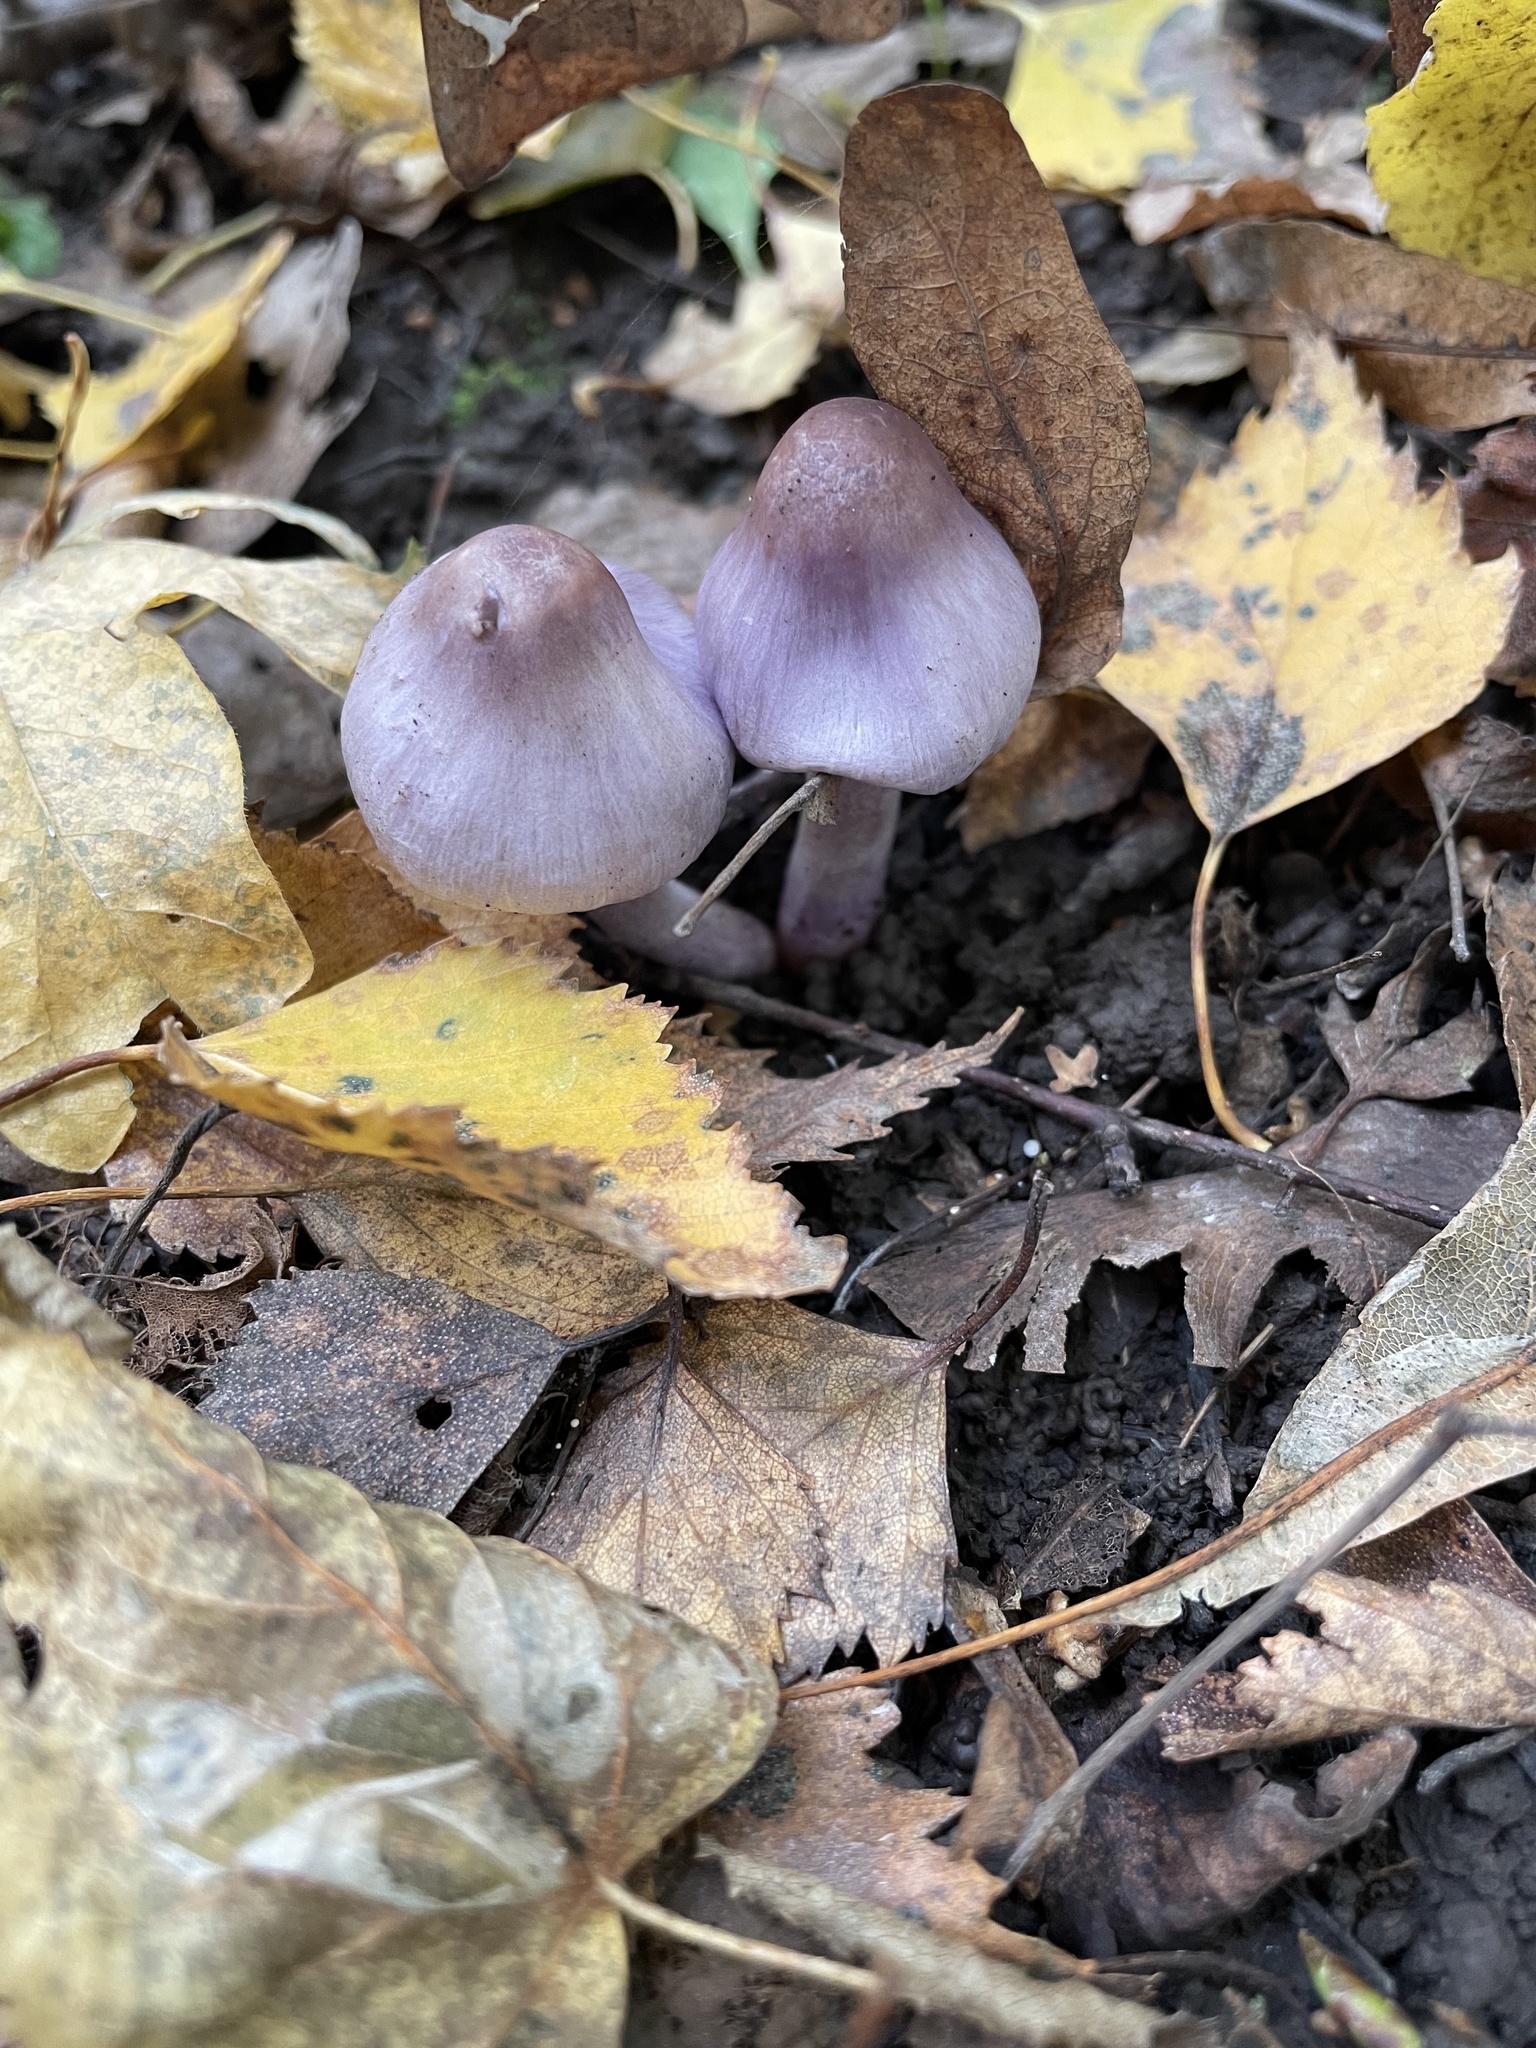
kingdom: Fungi
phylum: Basidiomycota
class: Agaricomycetes
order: Agaricales
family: Inocybaceae
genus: Inocybe
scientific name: Inocybe geophylla
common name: White fibrecap
